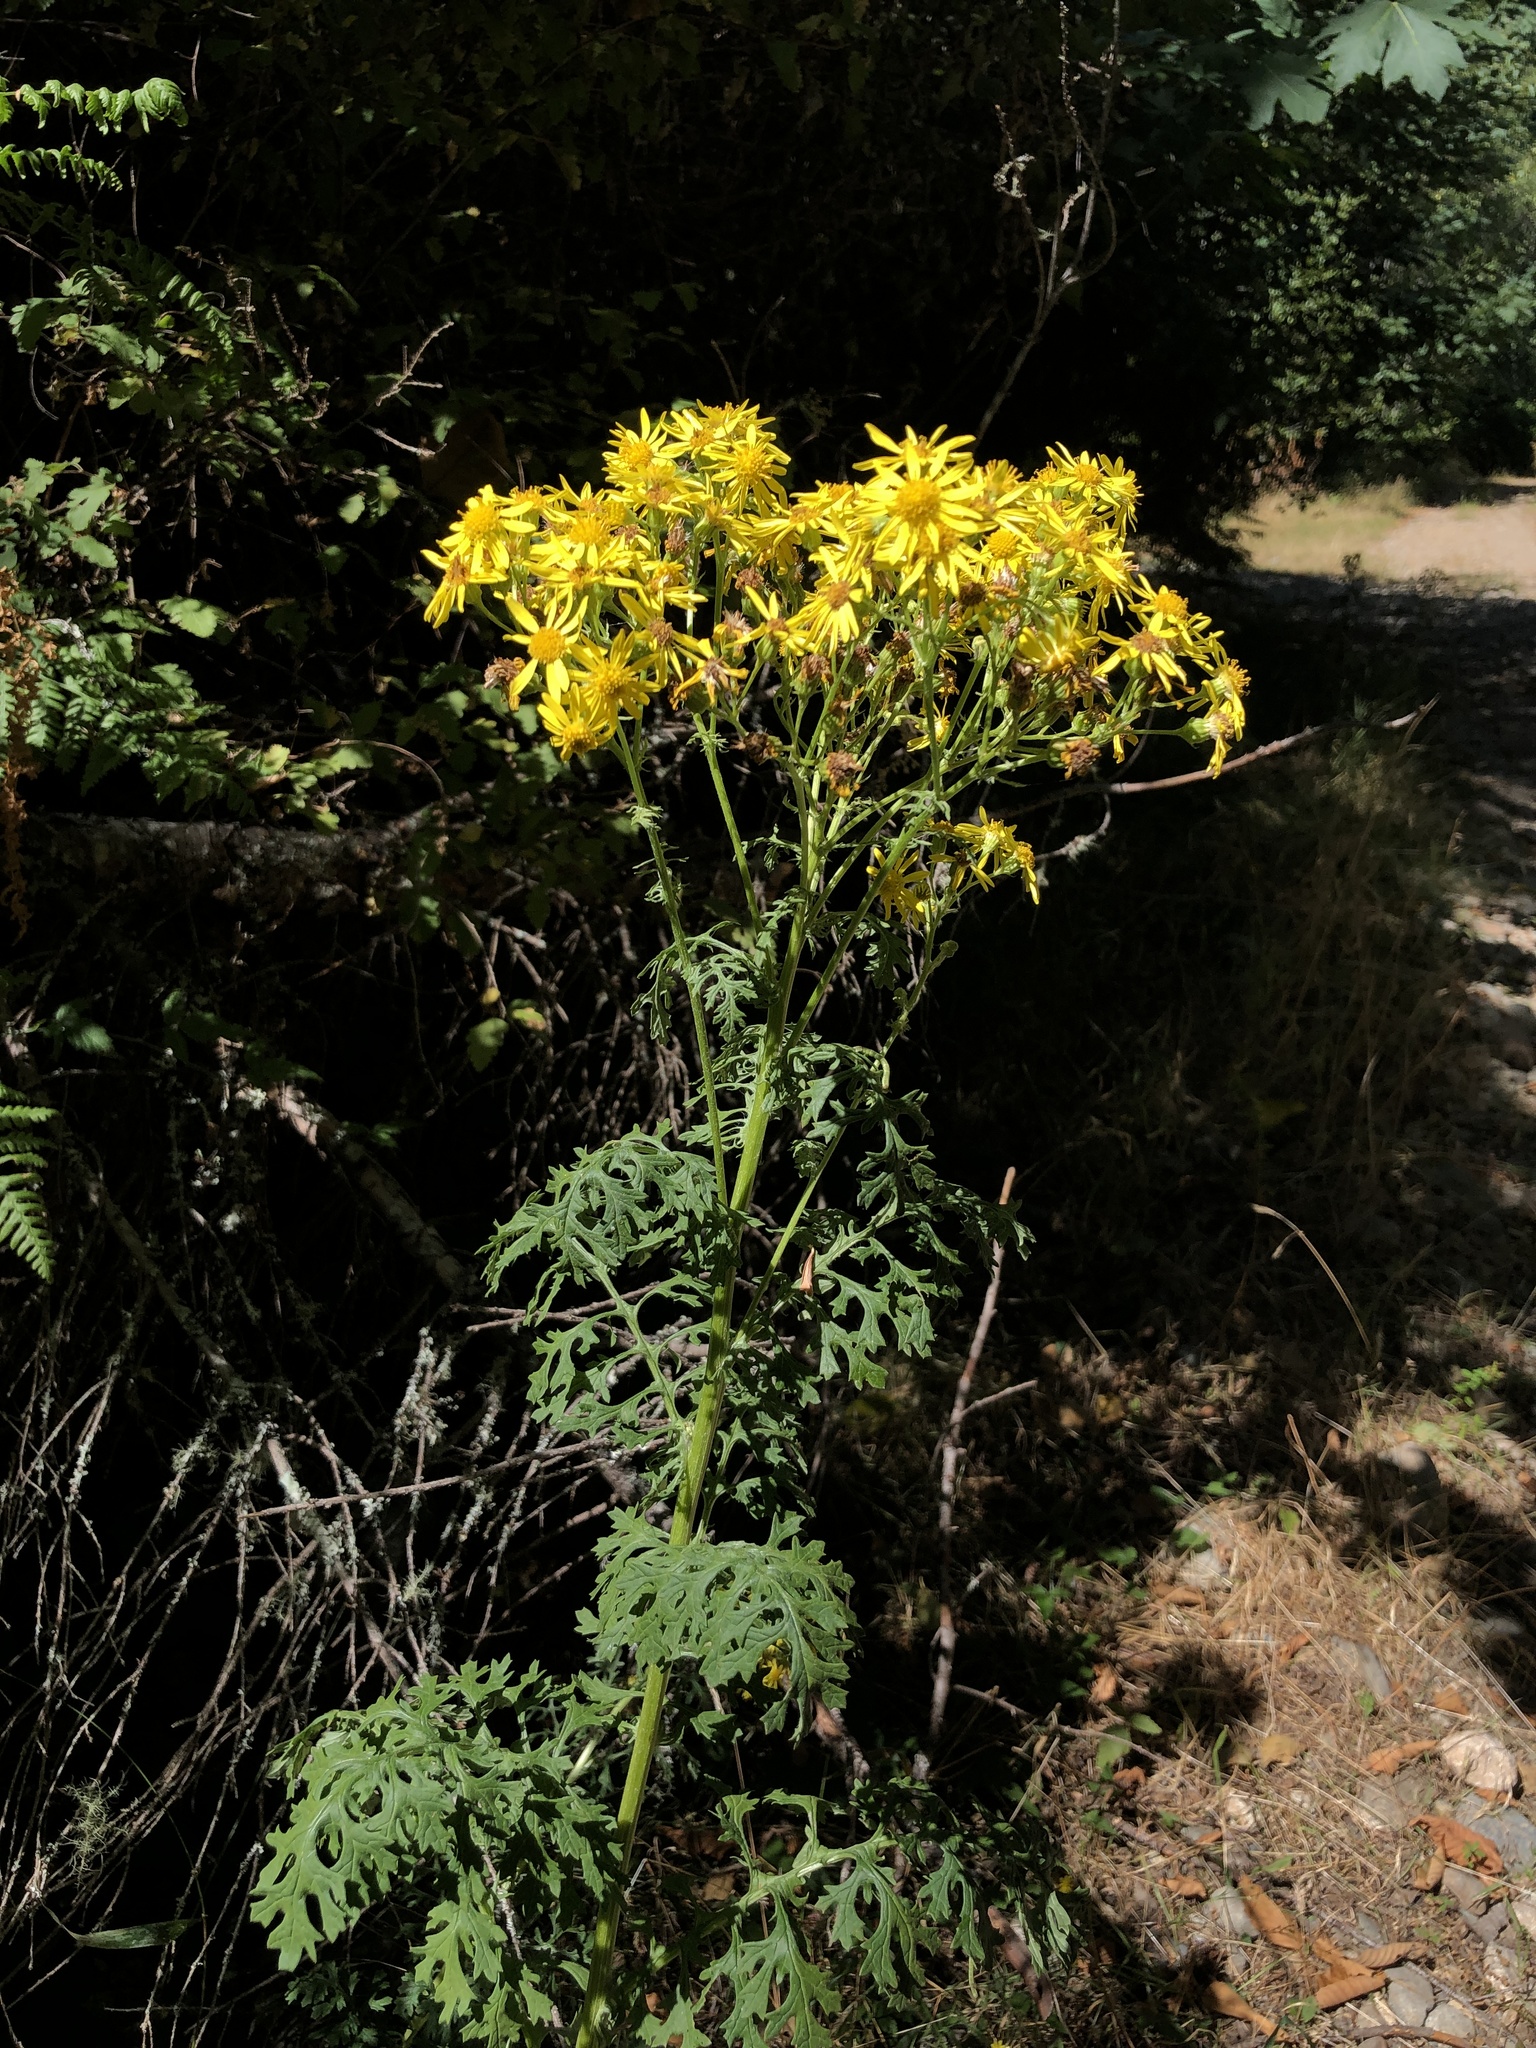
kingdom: Plantae
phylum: Tracheophyta
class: Magnoliopsida
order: Asterales
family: Asteraceae
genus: Jacobaea
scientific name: Jacobaea vulgaris
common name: Stinking willie
